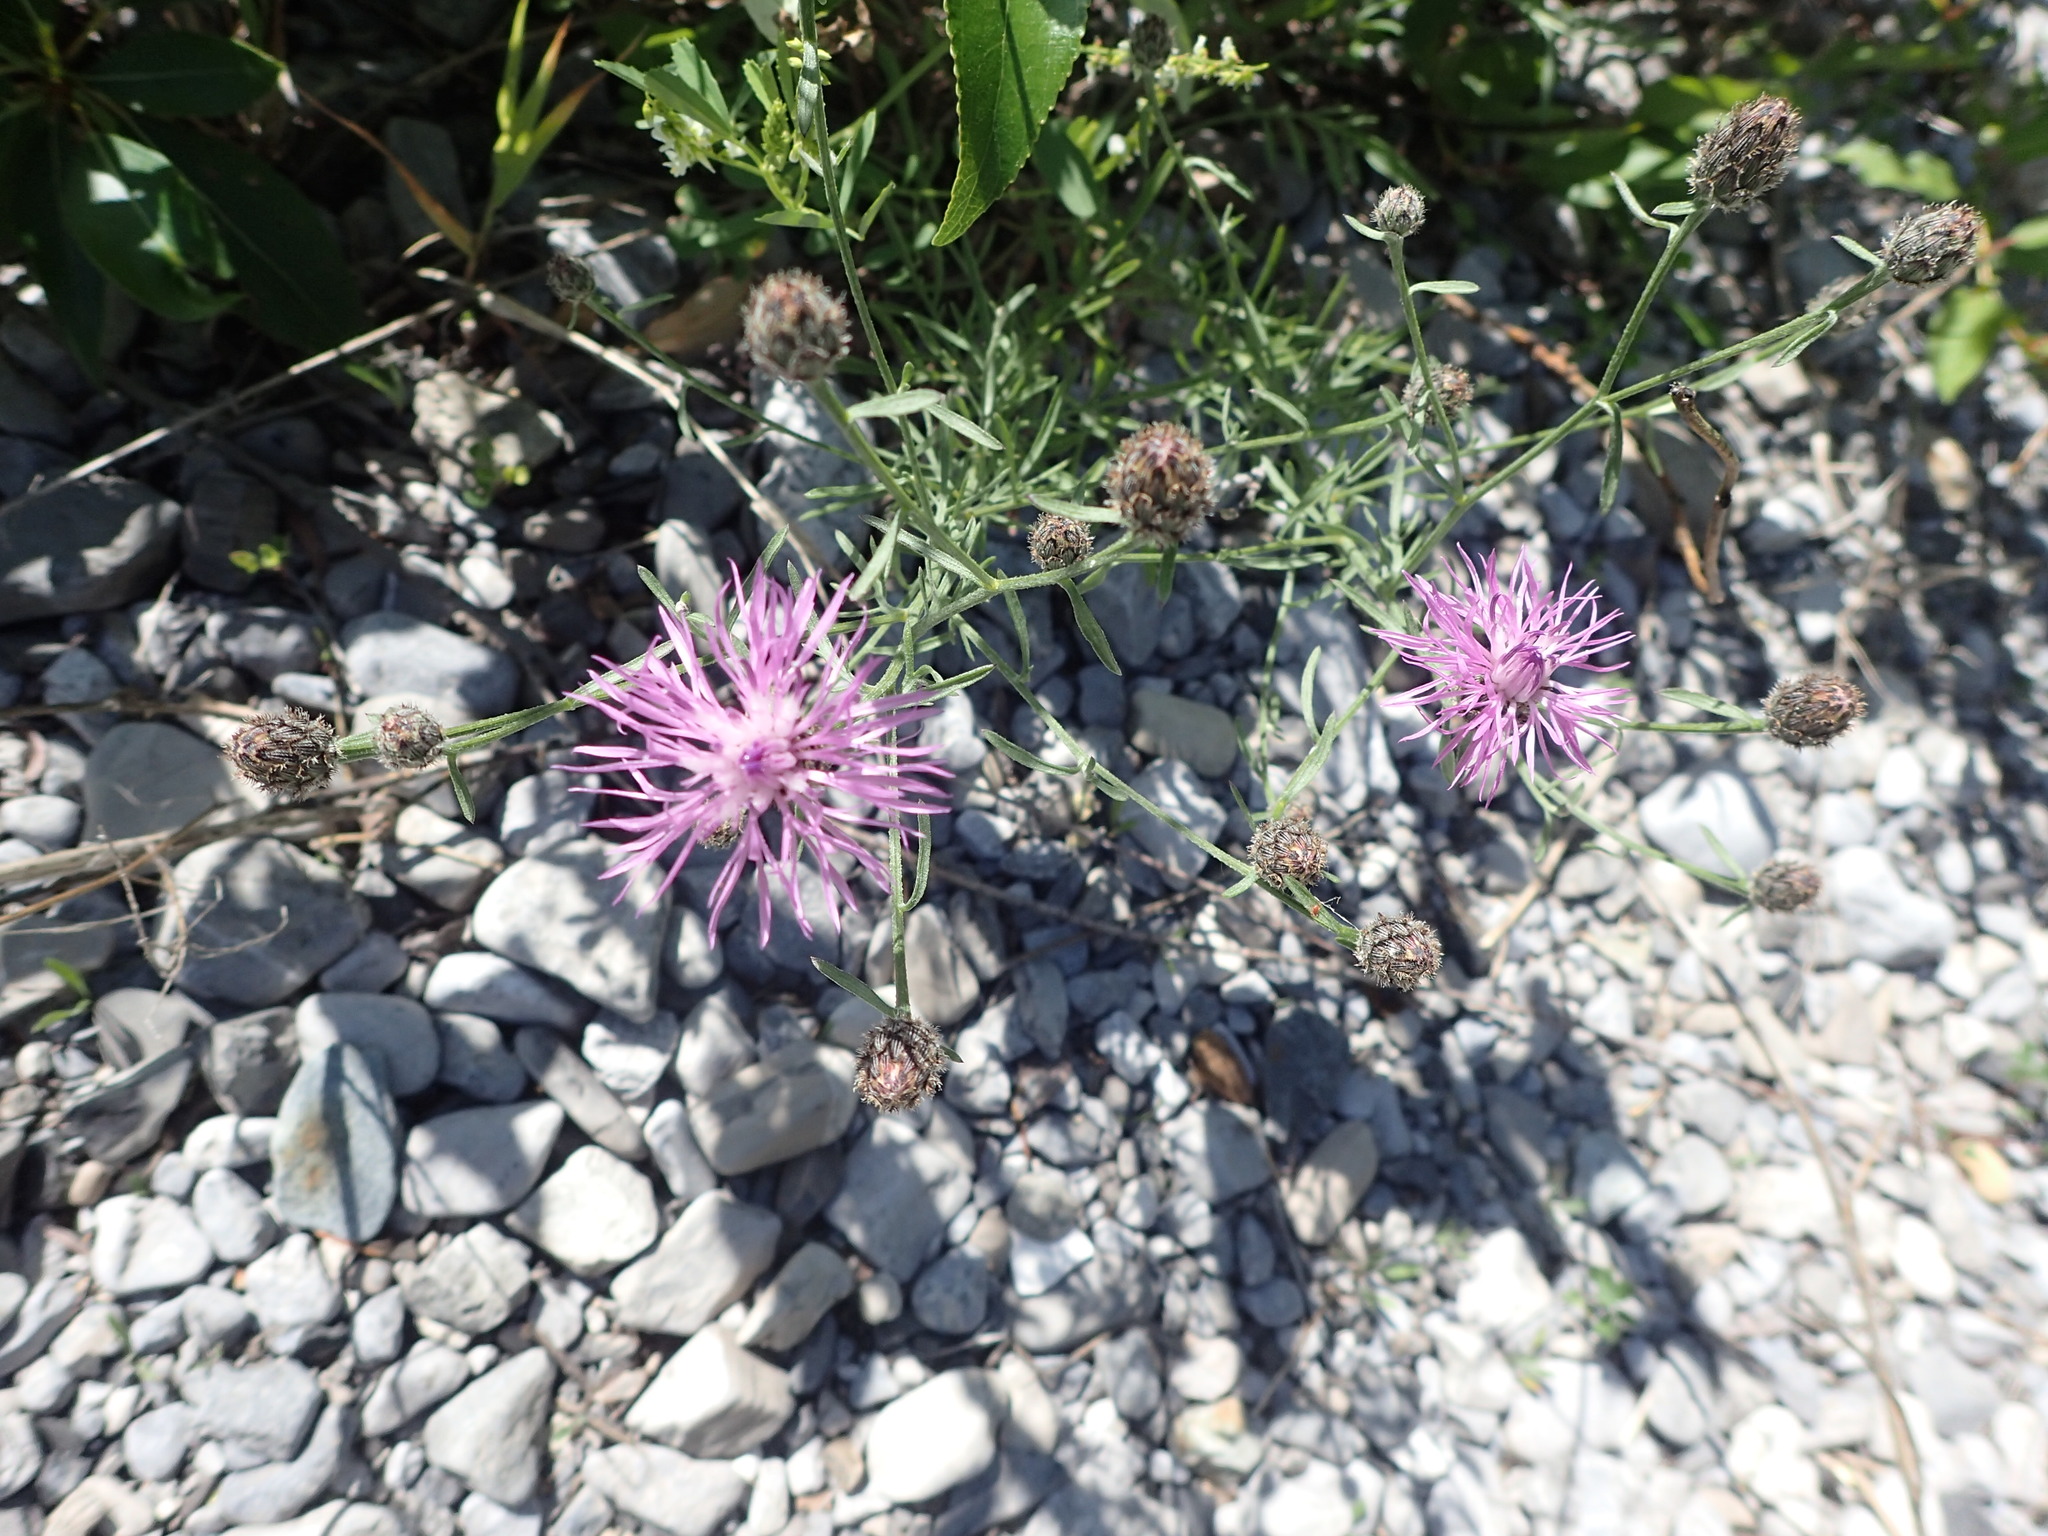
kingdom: Plantae
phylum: Tracheophyta
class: Magnoliopsida
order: Asterales
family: Asteraceae
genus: Centaurea
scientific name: Centaurea stoebe
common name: Spotted knapweed
